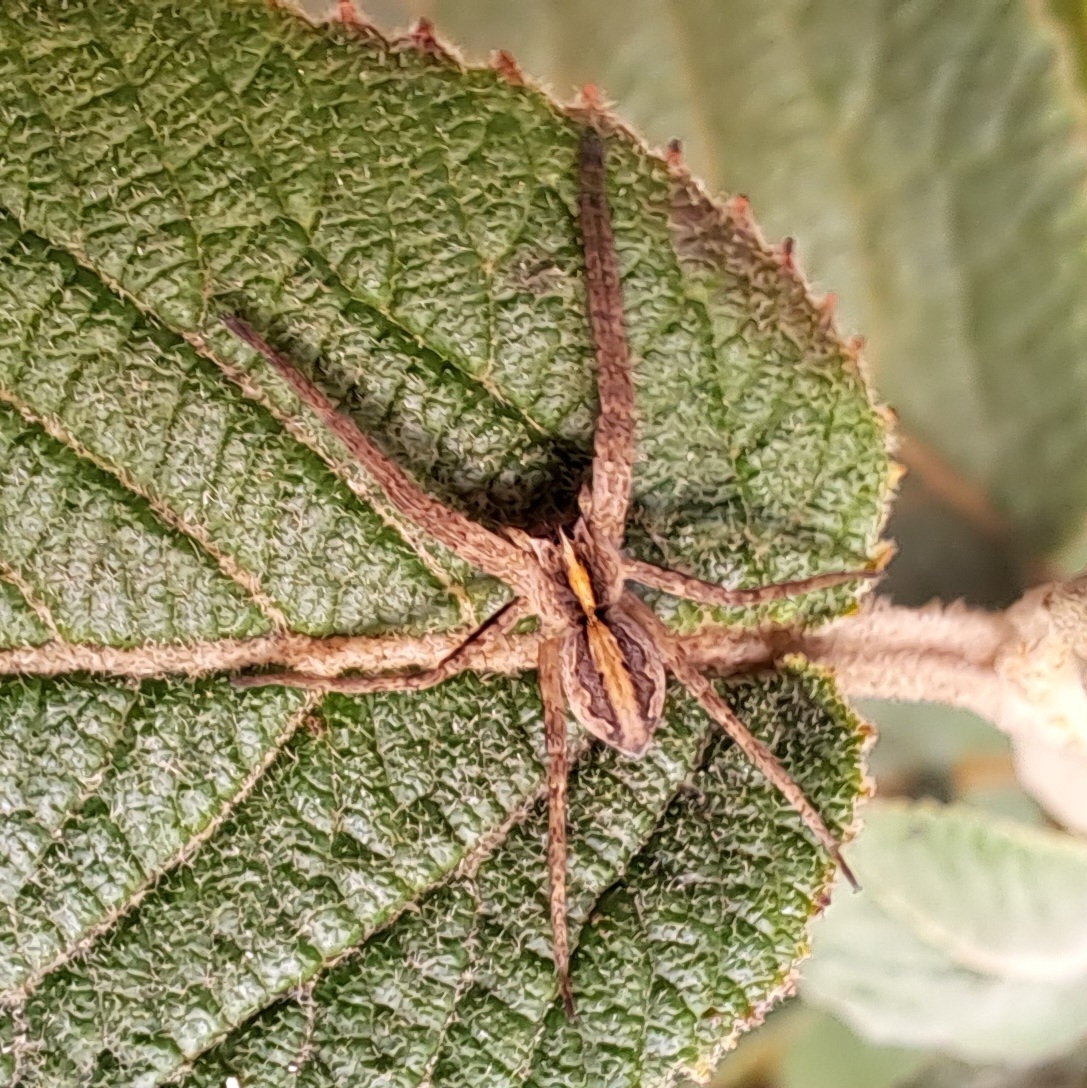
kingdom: Animalia
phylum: Arthropoda
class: Arachnida
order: Araneae
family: Pisauridae
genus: Pisaura
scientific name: Pisaura mirabilis
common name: Tent spider
